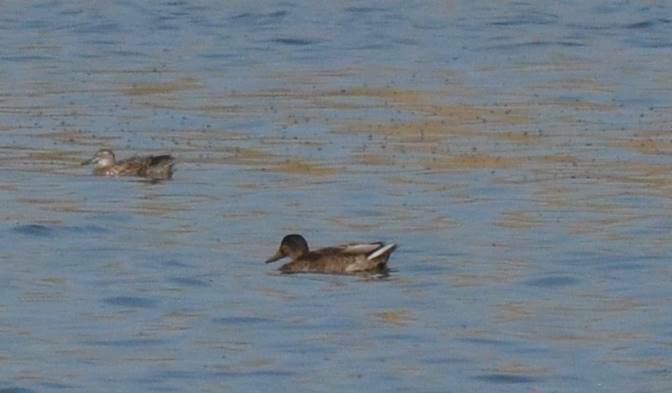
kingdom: Animalia
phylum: Chordata
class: Aves
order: Anseriformes
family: Anatidae
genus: Anas
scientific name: Anas platyrhynchos
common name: Mallard
